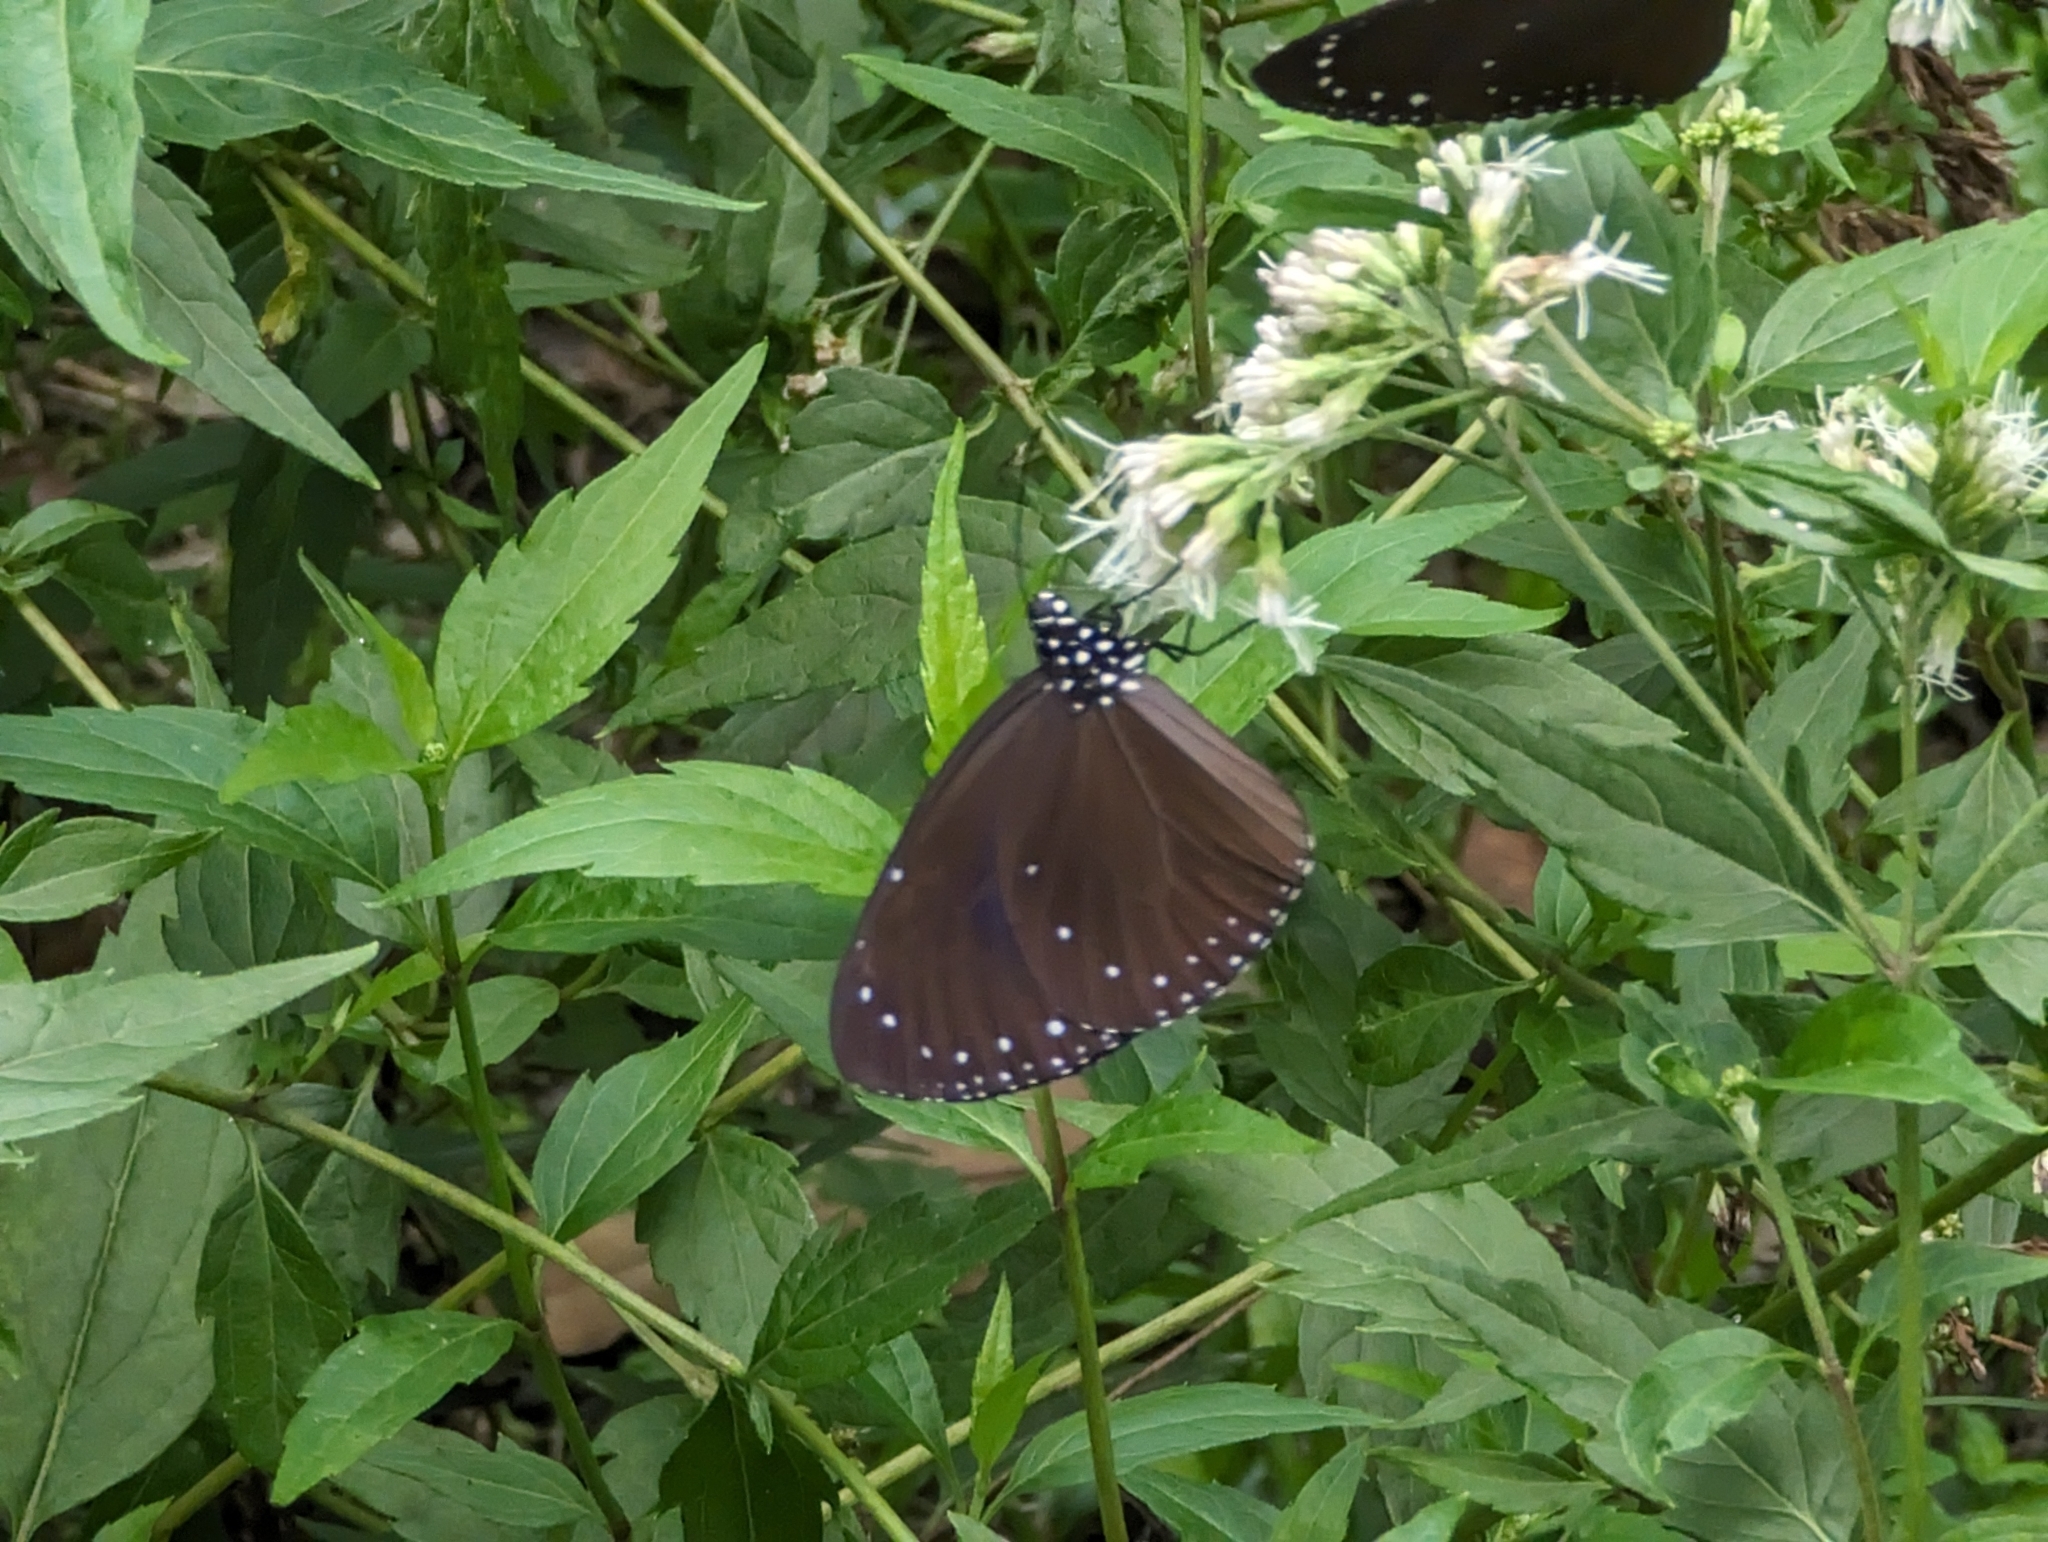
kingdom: Animalia
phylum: Arthropoda
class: Insecta
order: Lepidoptera
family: Nymphalidae
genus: Euploea
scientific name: Euploea tulliolus
